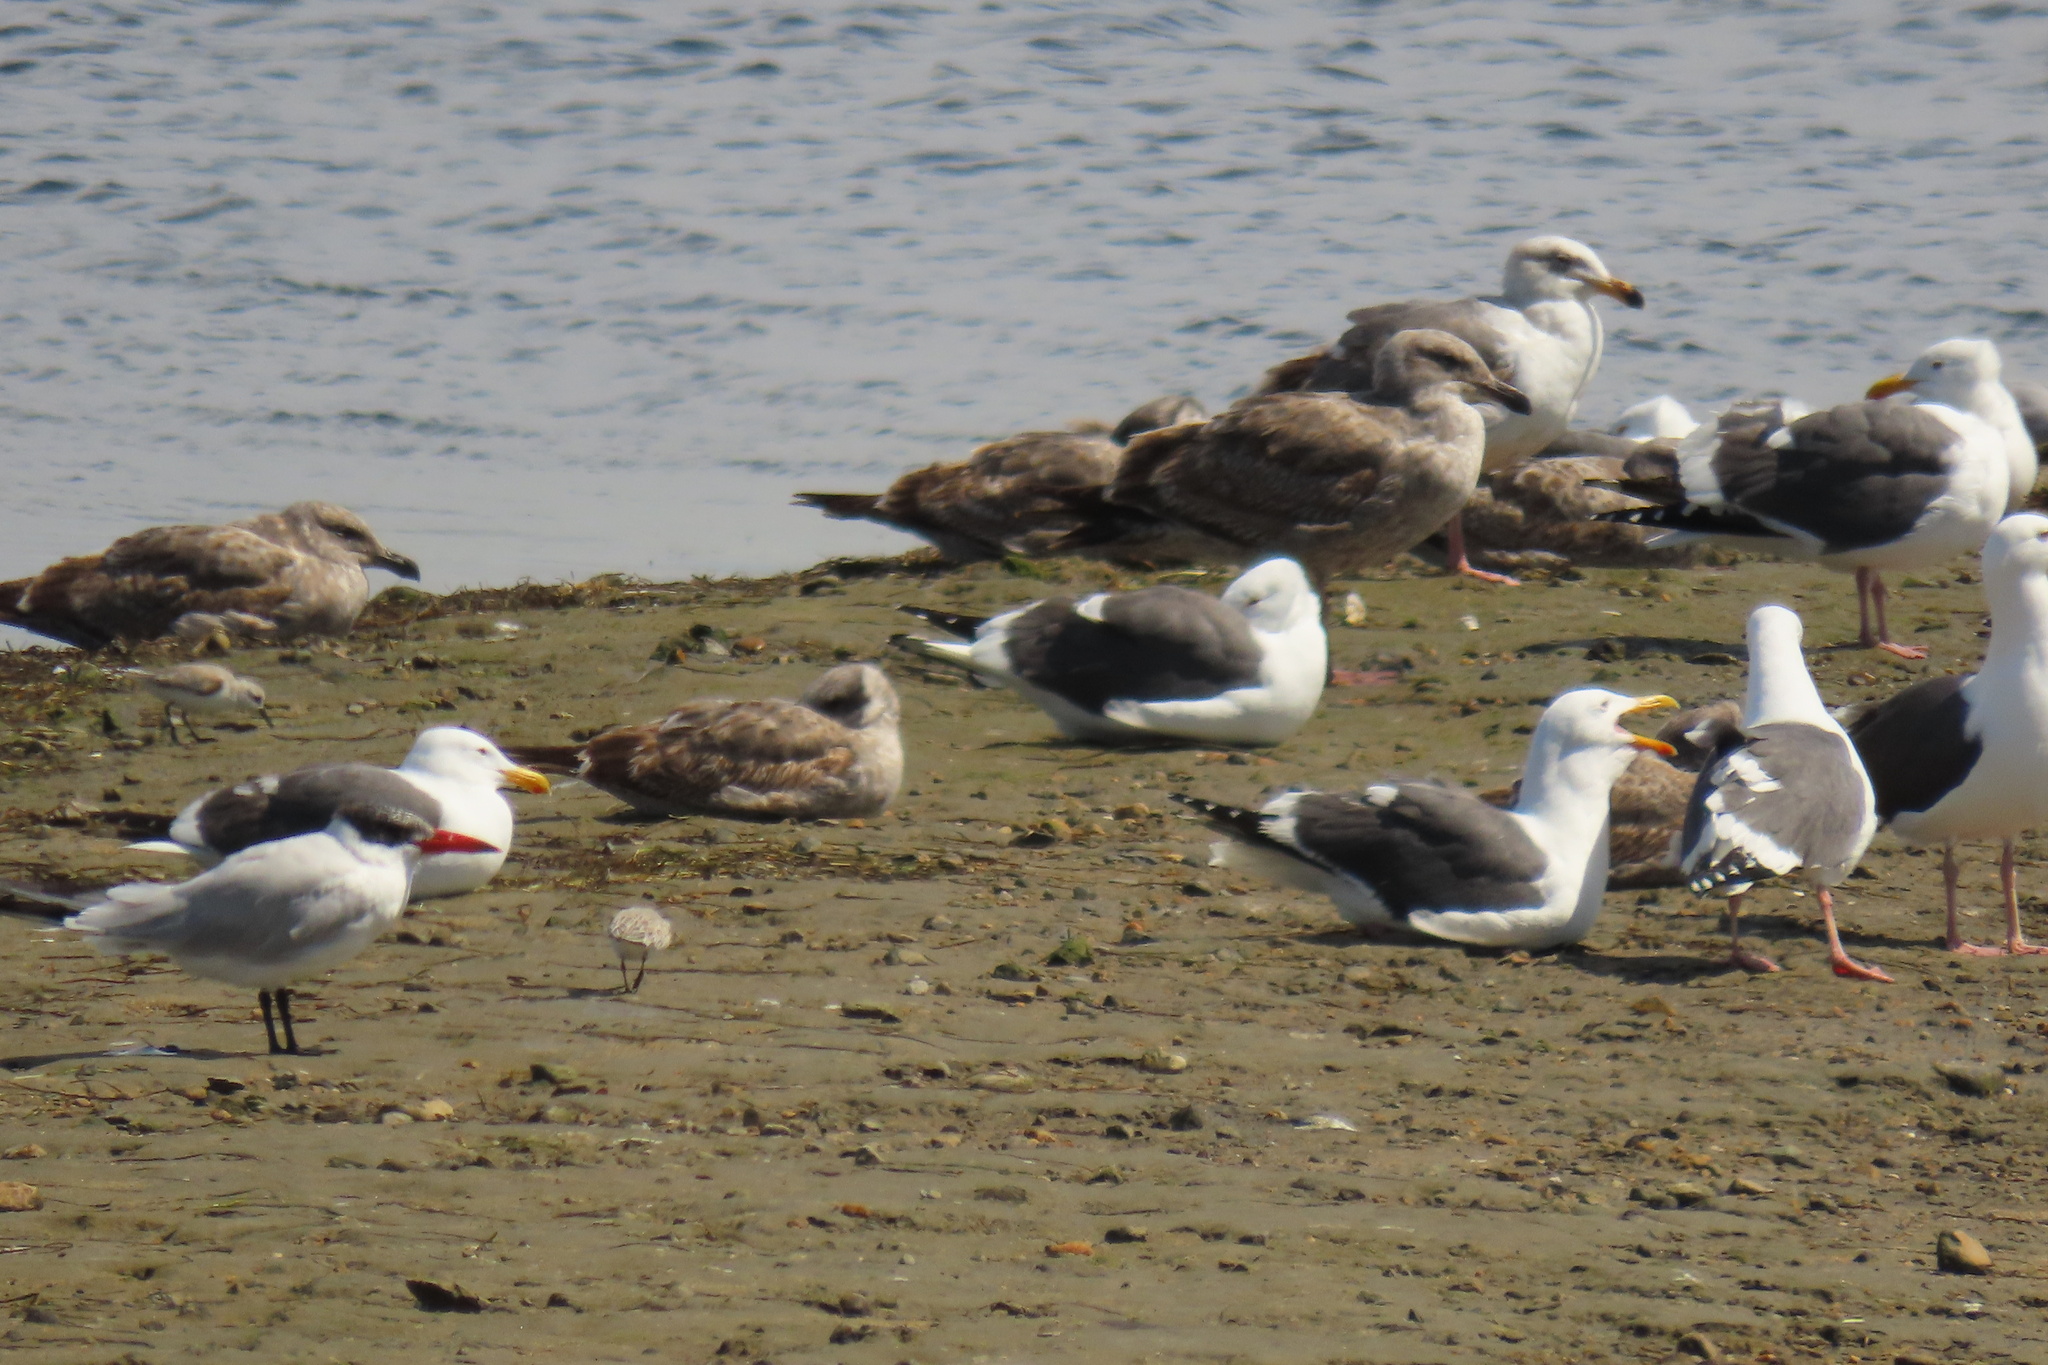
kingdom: Animalia
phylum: Chordata
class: Aves
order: Charadriiformes
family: Laridae
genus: Larus
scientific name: Larus occidentalis
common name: Western gull
